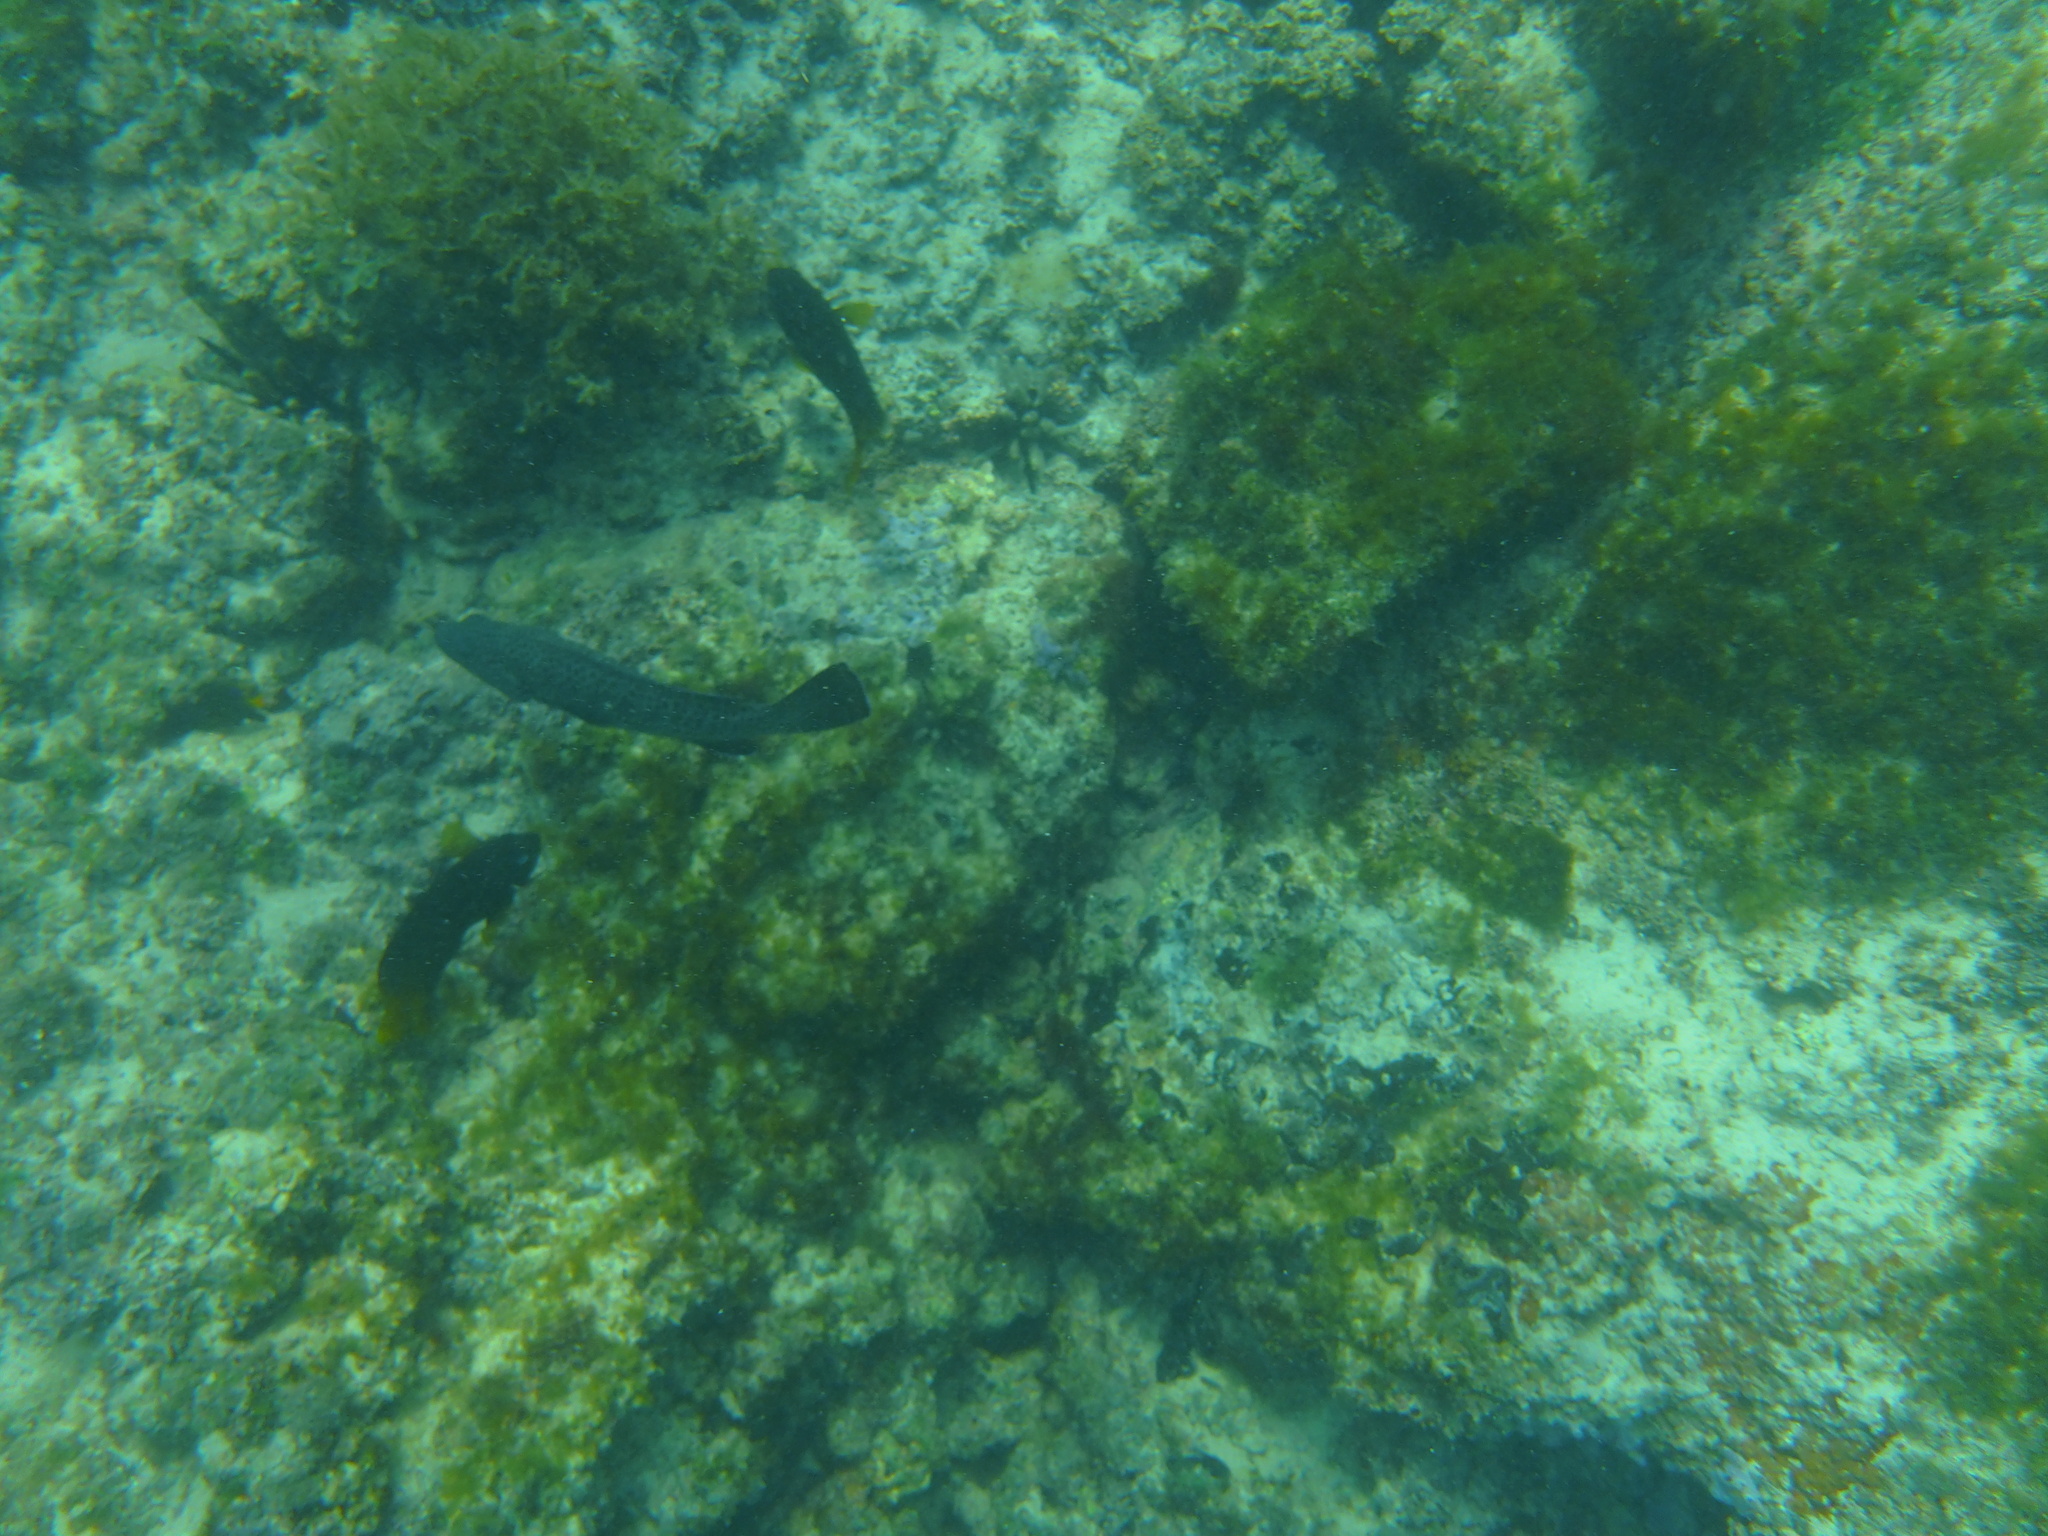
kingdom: Animalia
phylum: Chordata
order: Perciformes
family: Pomacentridae
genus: Stegastes
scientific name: Stegastes arcifrons
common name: Galapagos gregory
